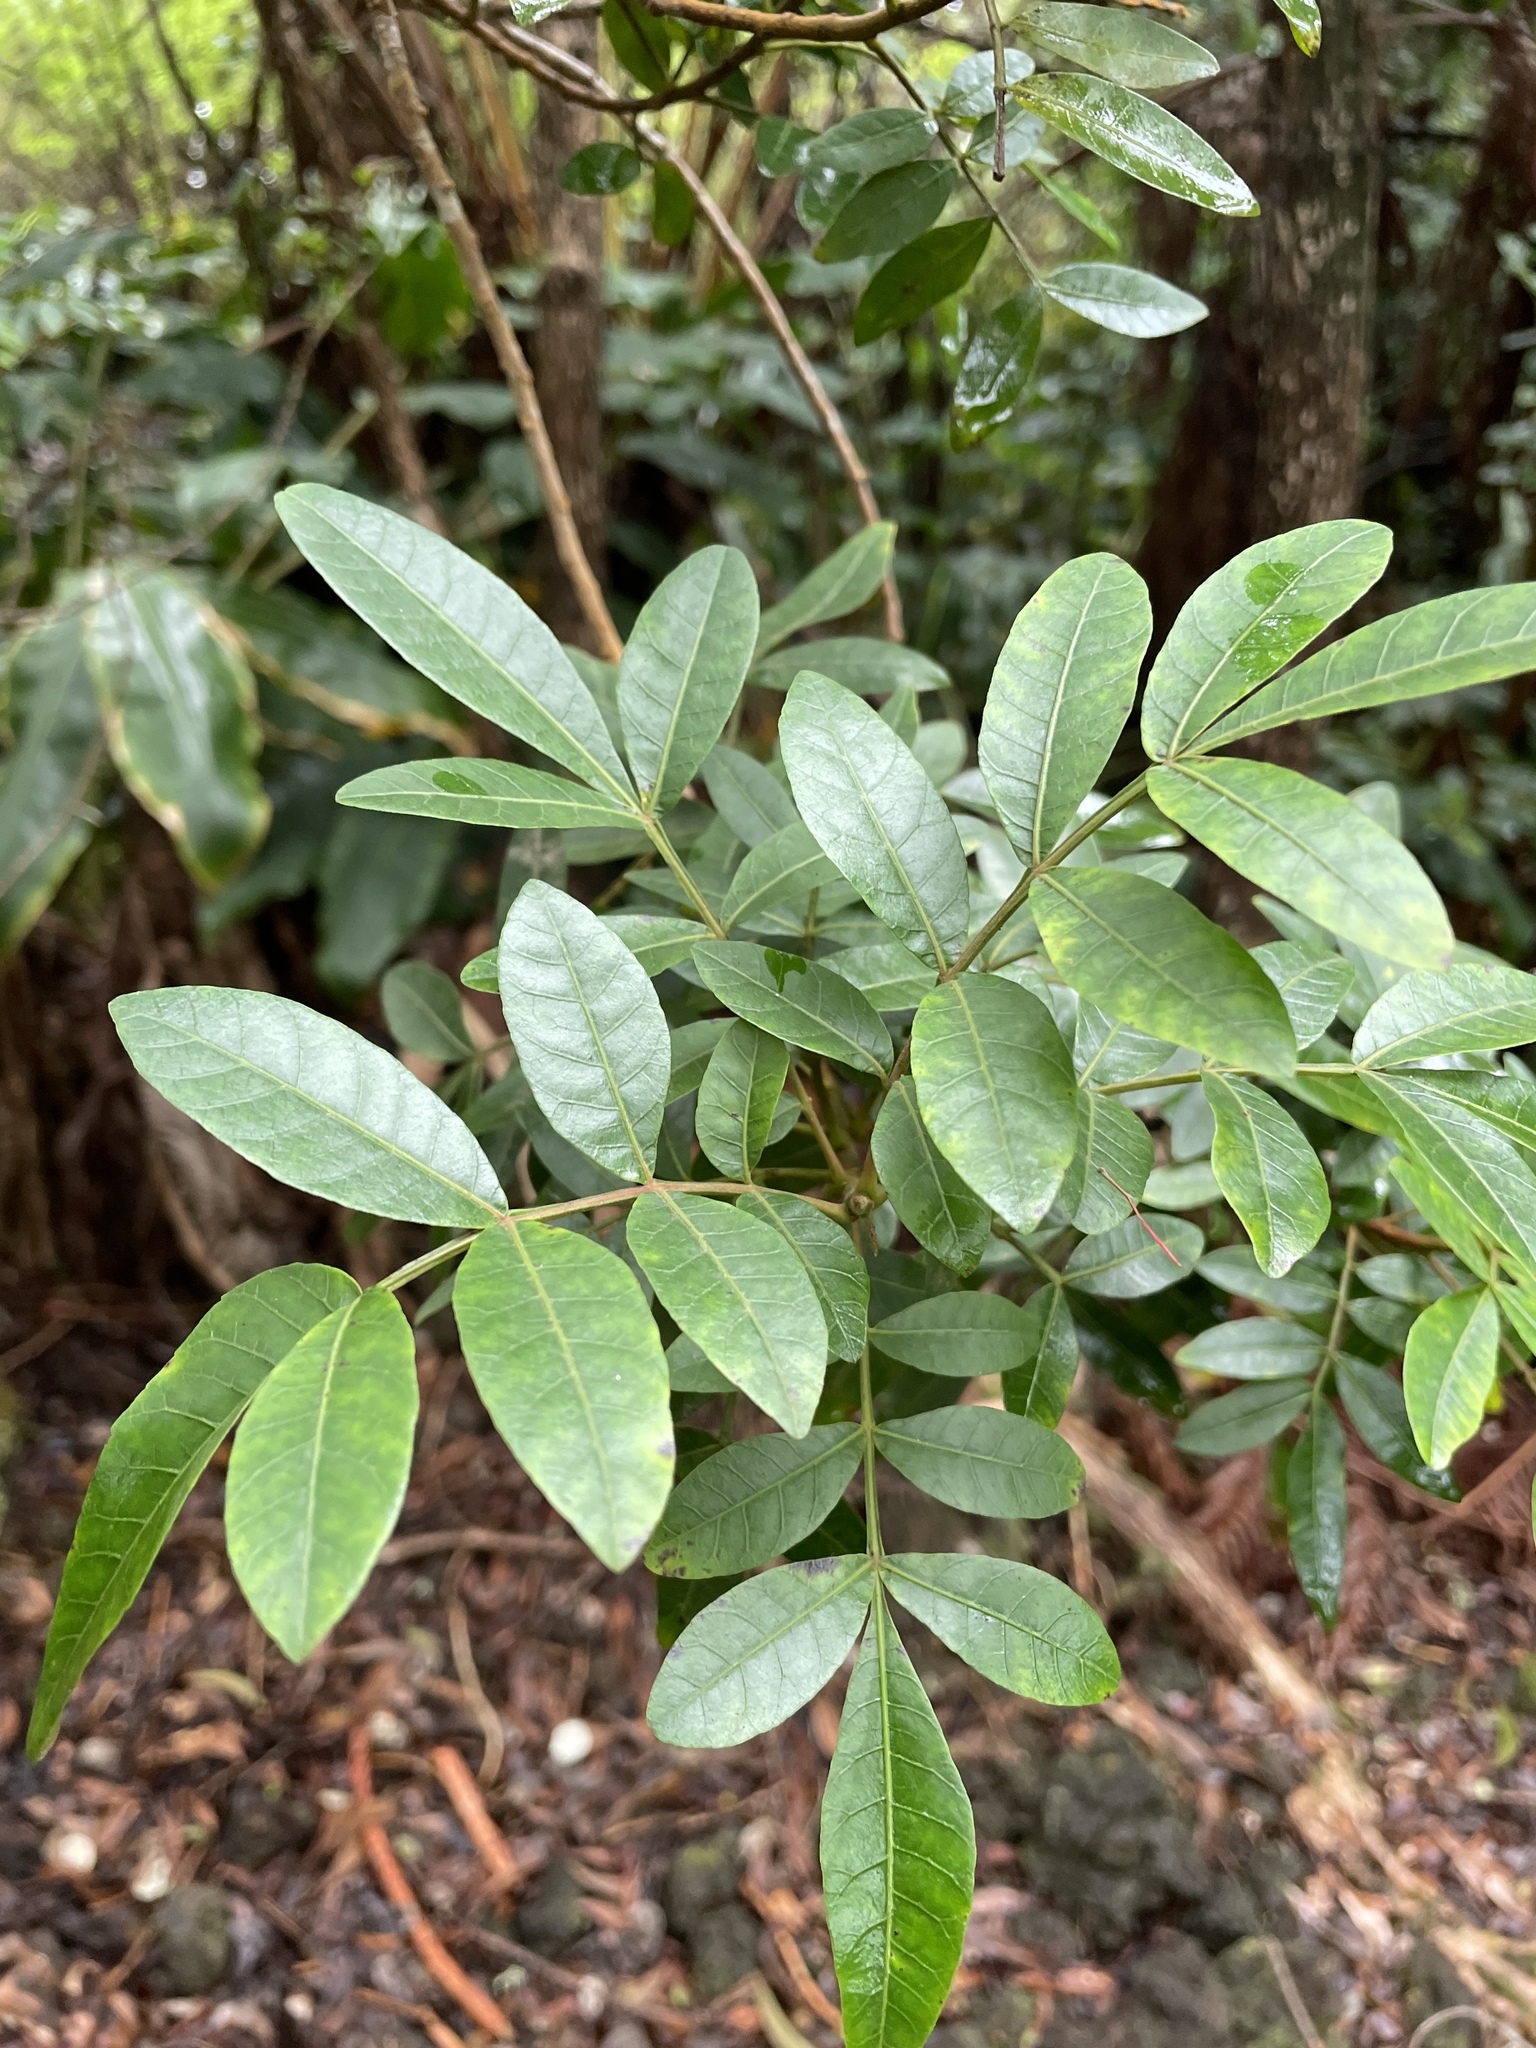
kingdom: Plantae
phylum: Tracheophyta
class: Magnoliopsida
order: Sapindales
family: Anacardiaceae
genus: Schinus
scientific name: Schinus terebinthifolia
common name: Brazilian peppertree
